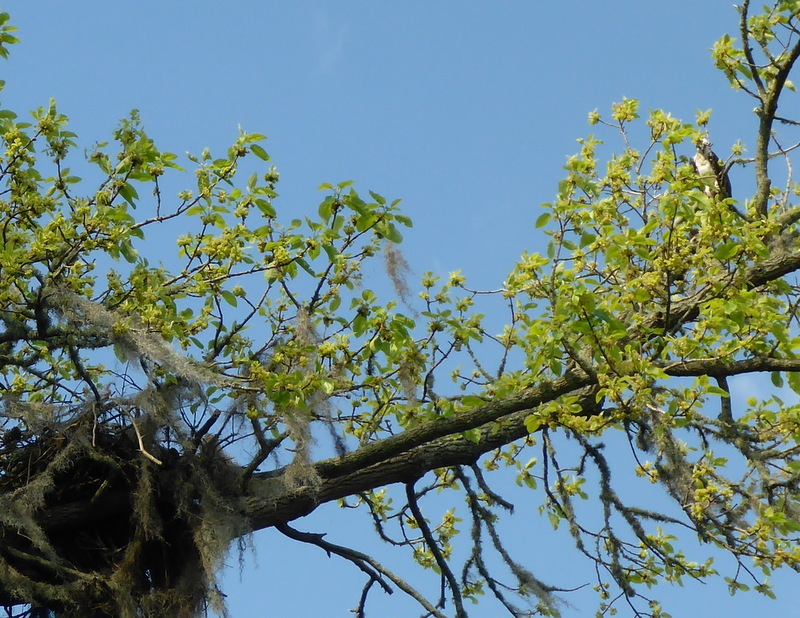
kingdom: Animalia
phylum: Chordata
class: Aves
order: Accipitriformes
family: Pandionidae
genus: Pandion
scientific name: Pandion haliaetus
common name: Osprey
